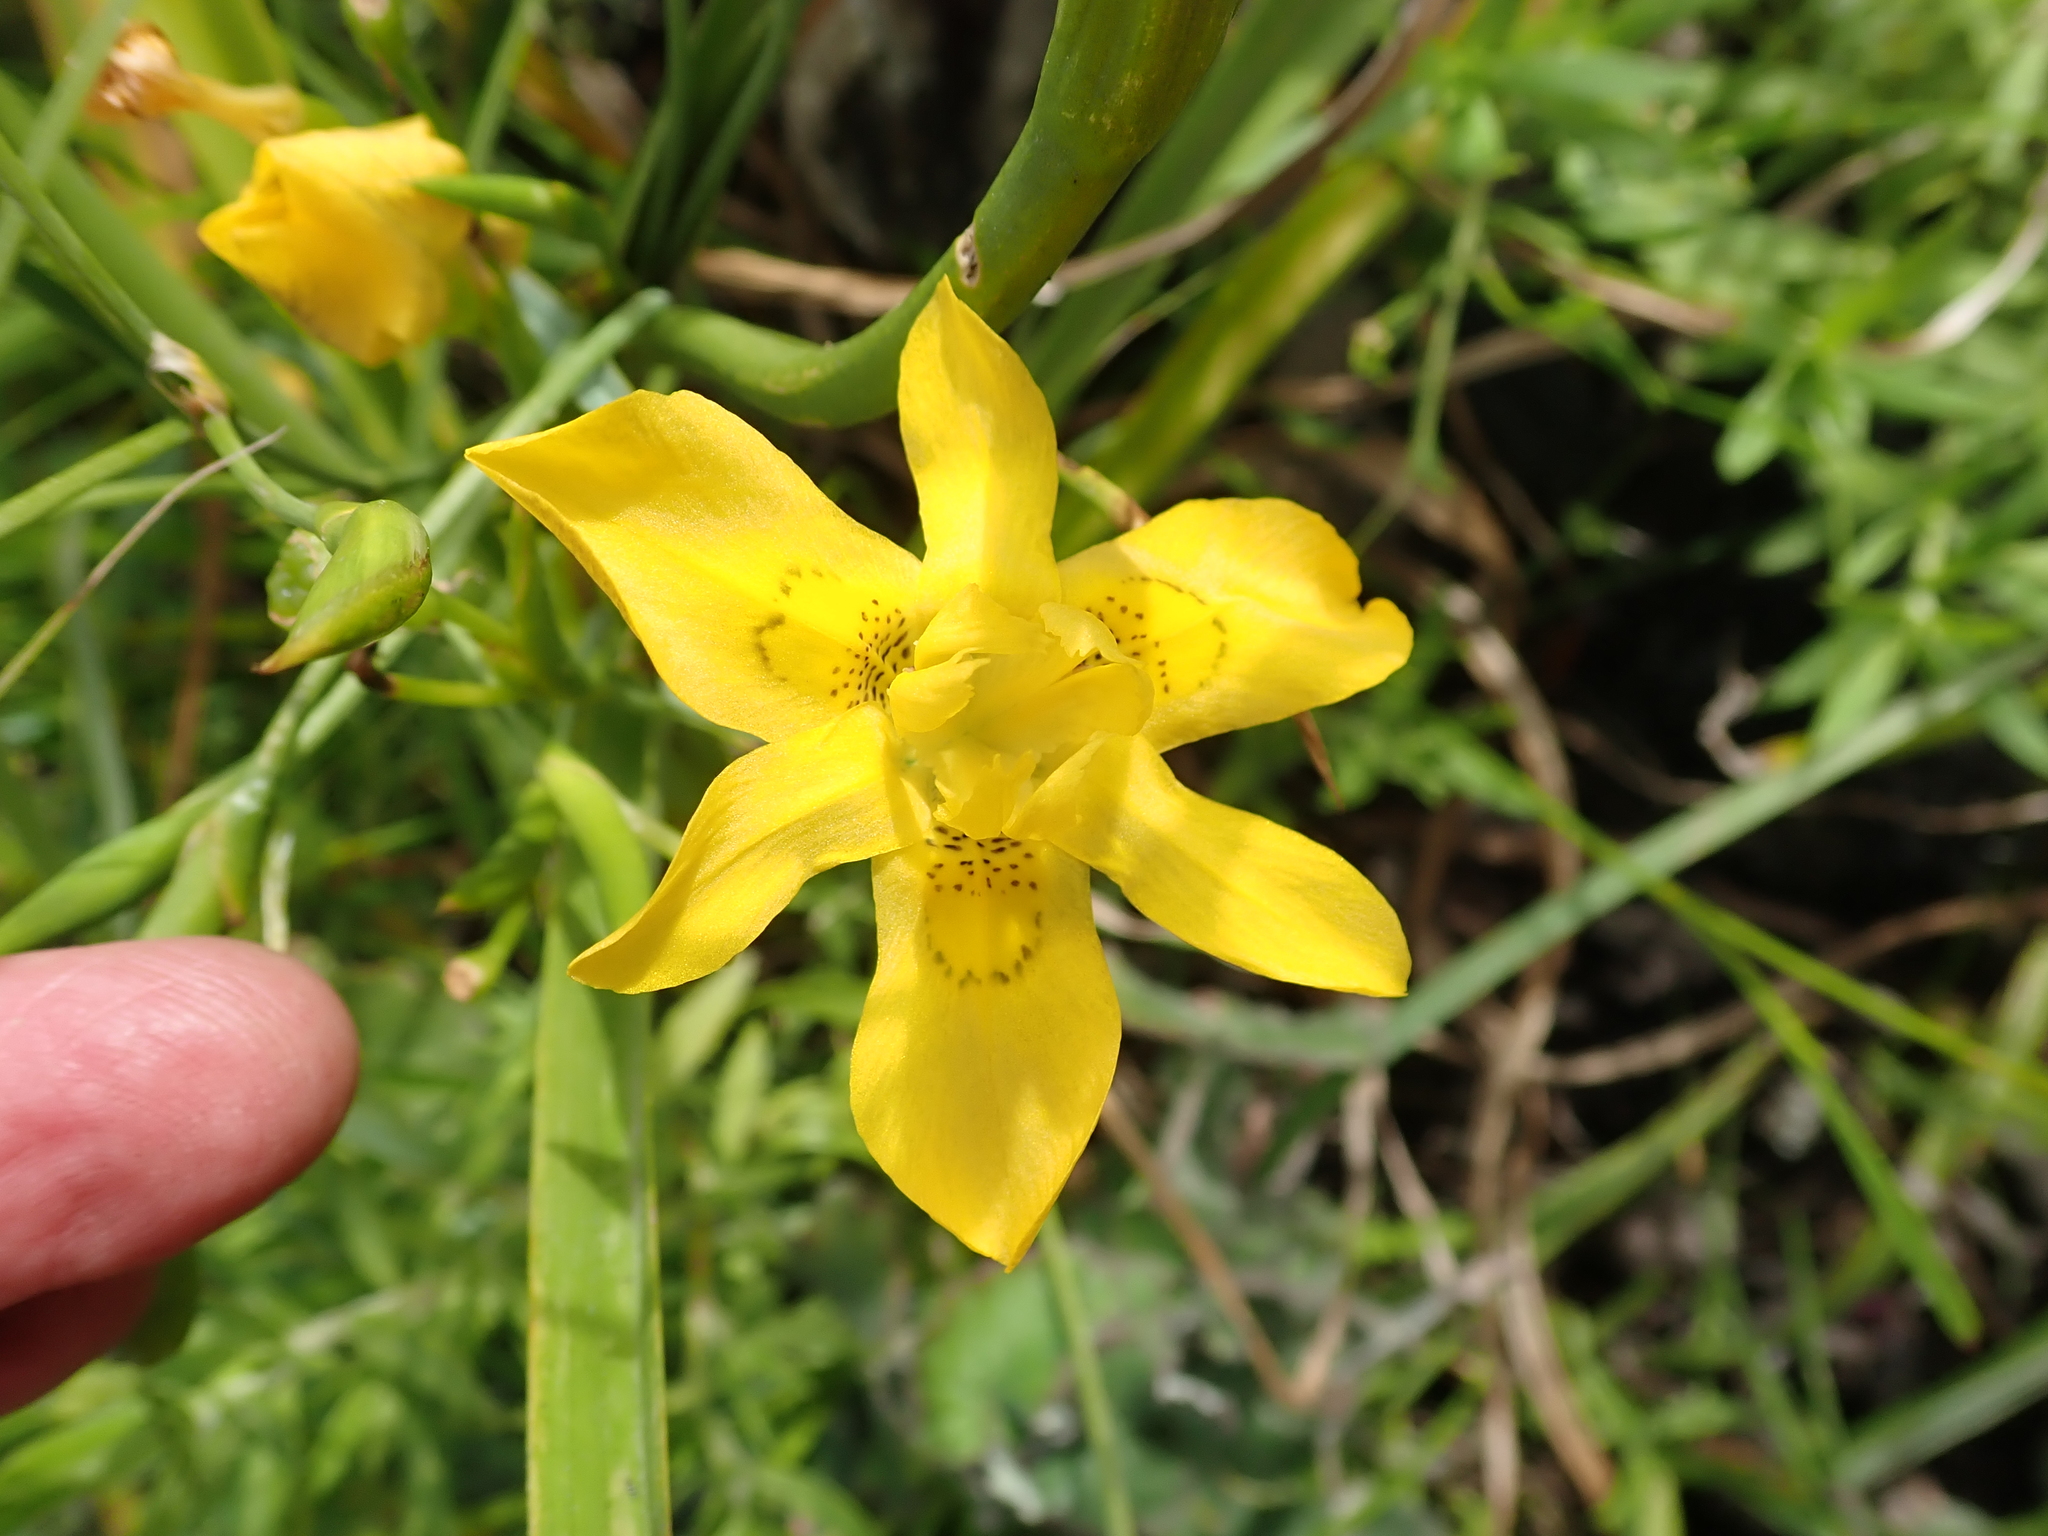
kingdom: Plantae
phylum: Tracheophyta
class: Liliopsida
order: Asparagales
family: Iridaceae
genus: Moraea
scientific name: Moraea ramosissima
